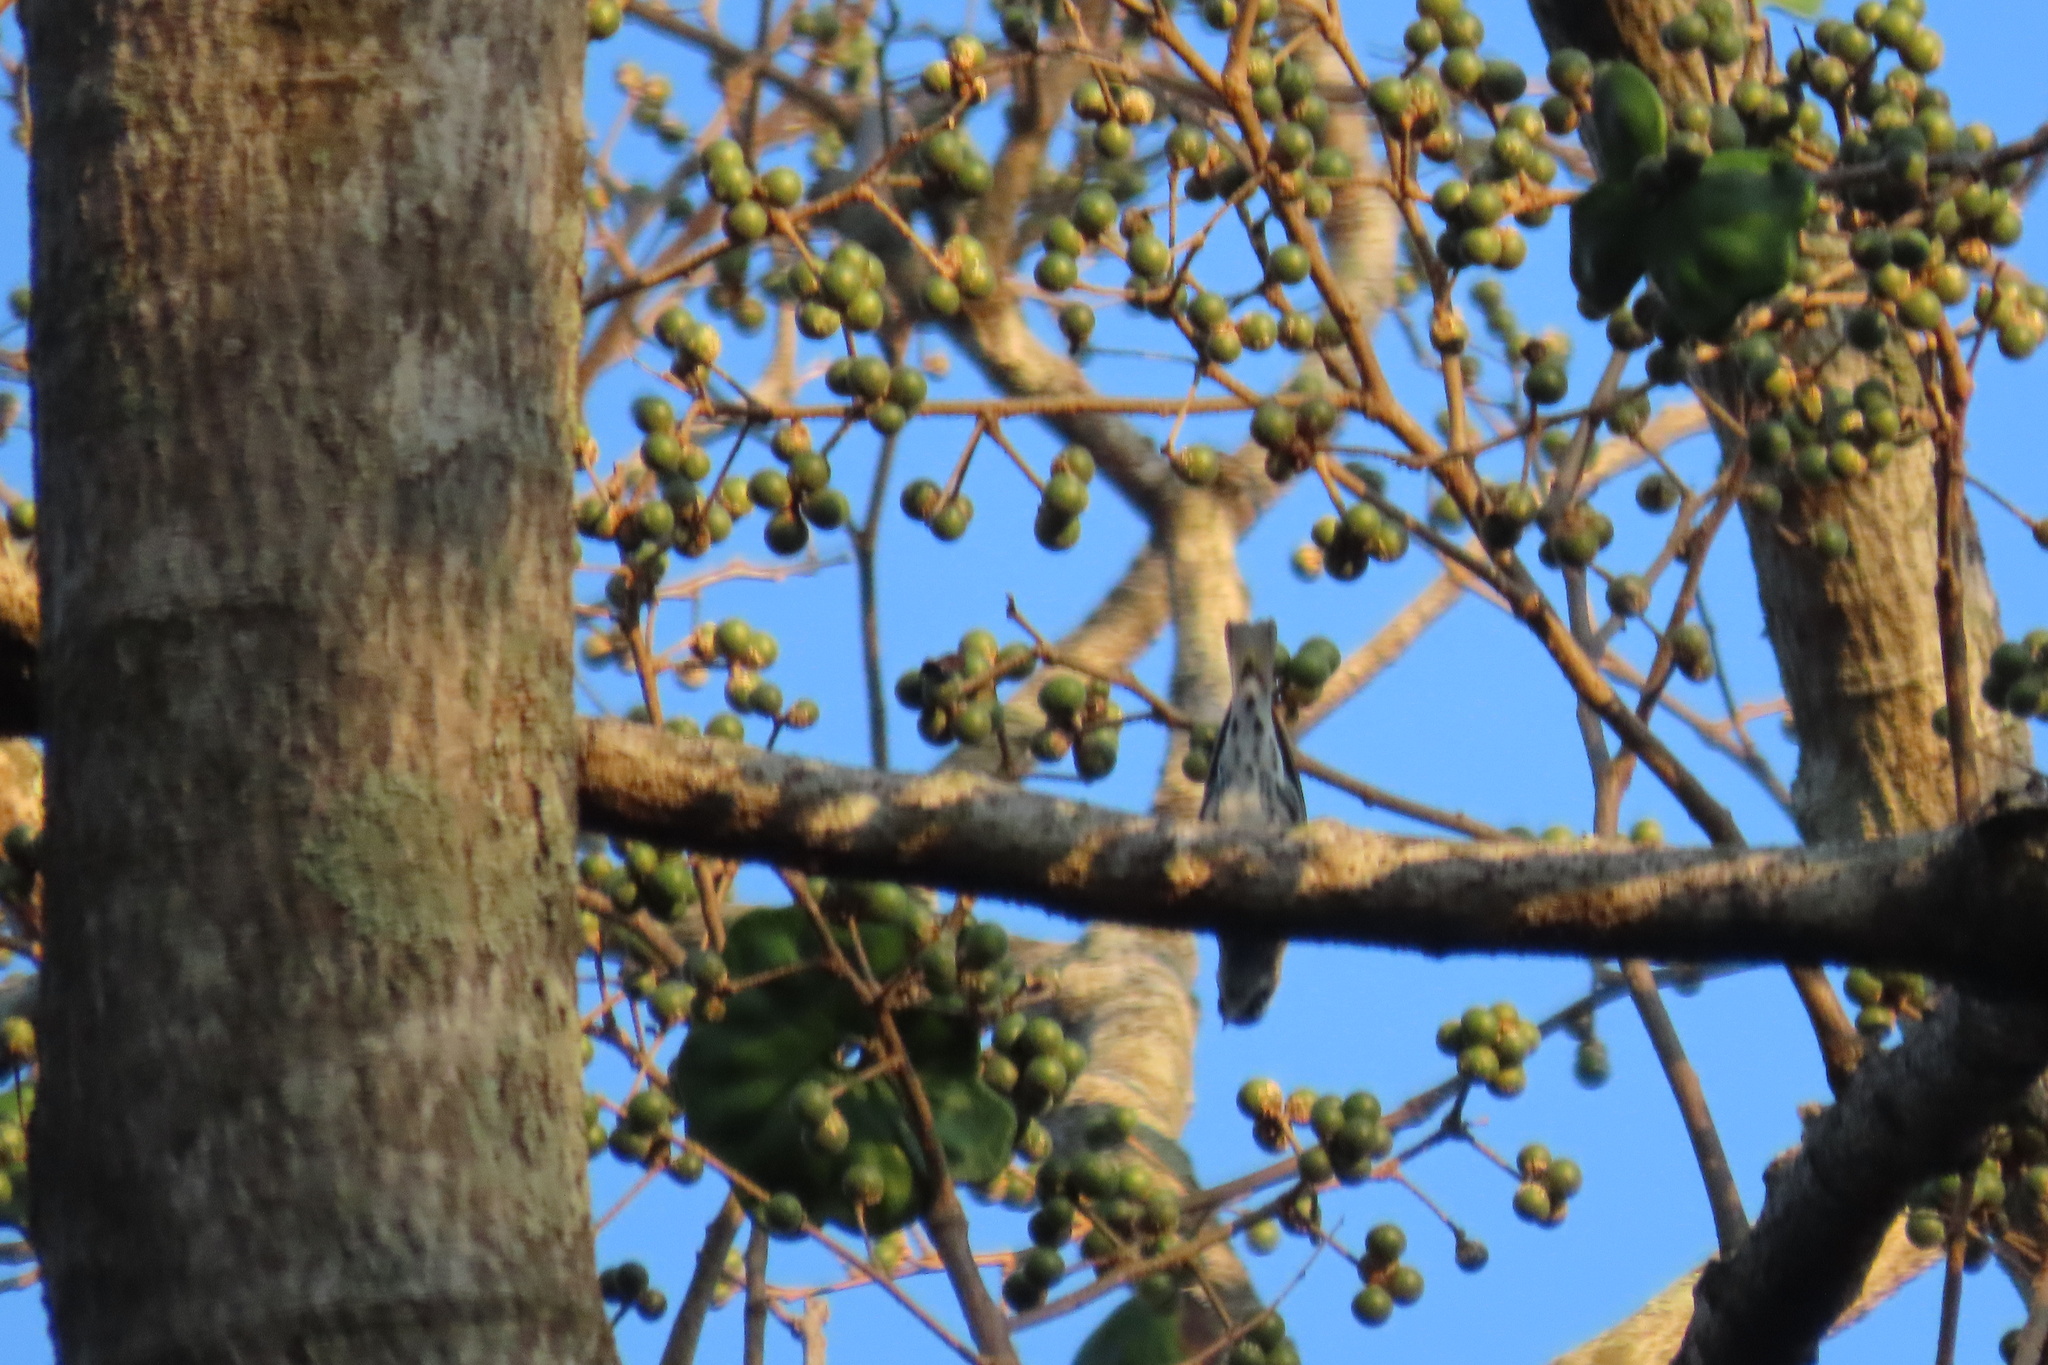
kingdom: Animalia
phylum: Chordata
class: Aves
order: Passeriformes
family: Parulidae
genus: Mniotilta
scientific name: Mniotilta varia
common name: Black-and-white warbler
